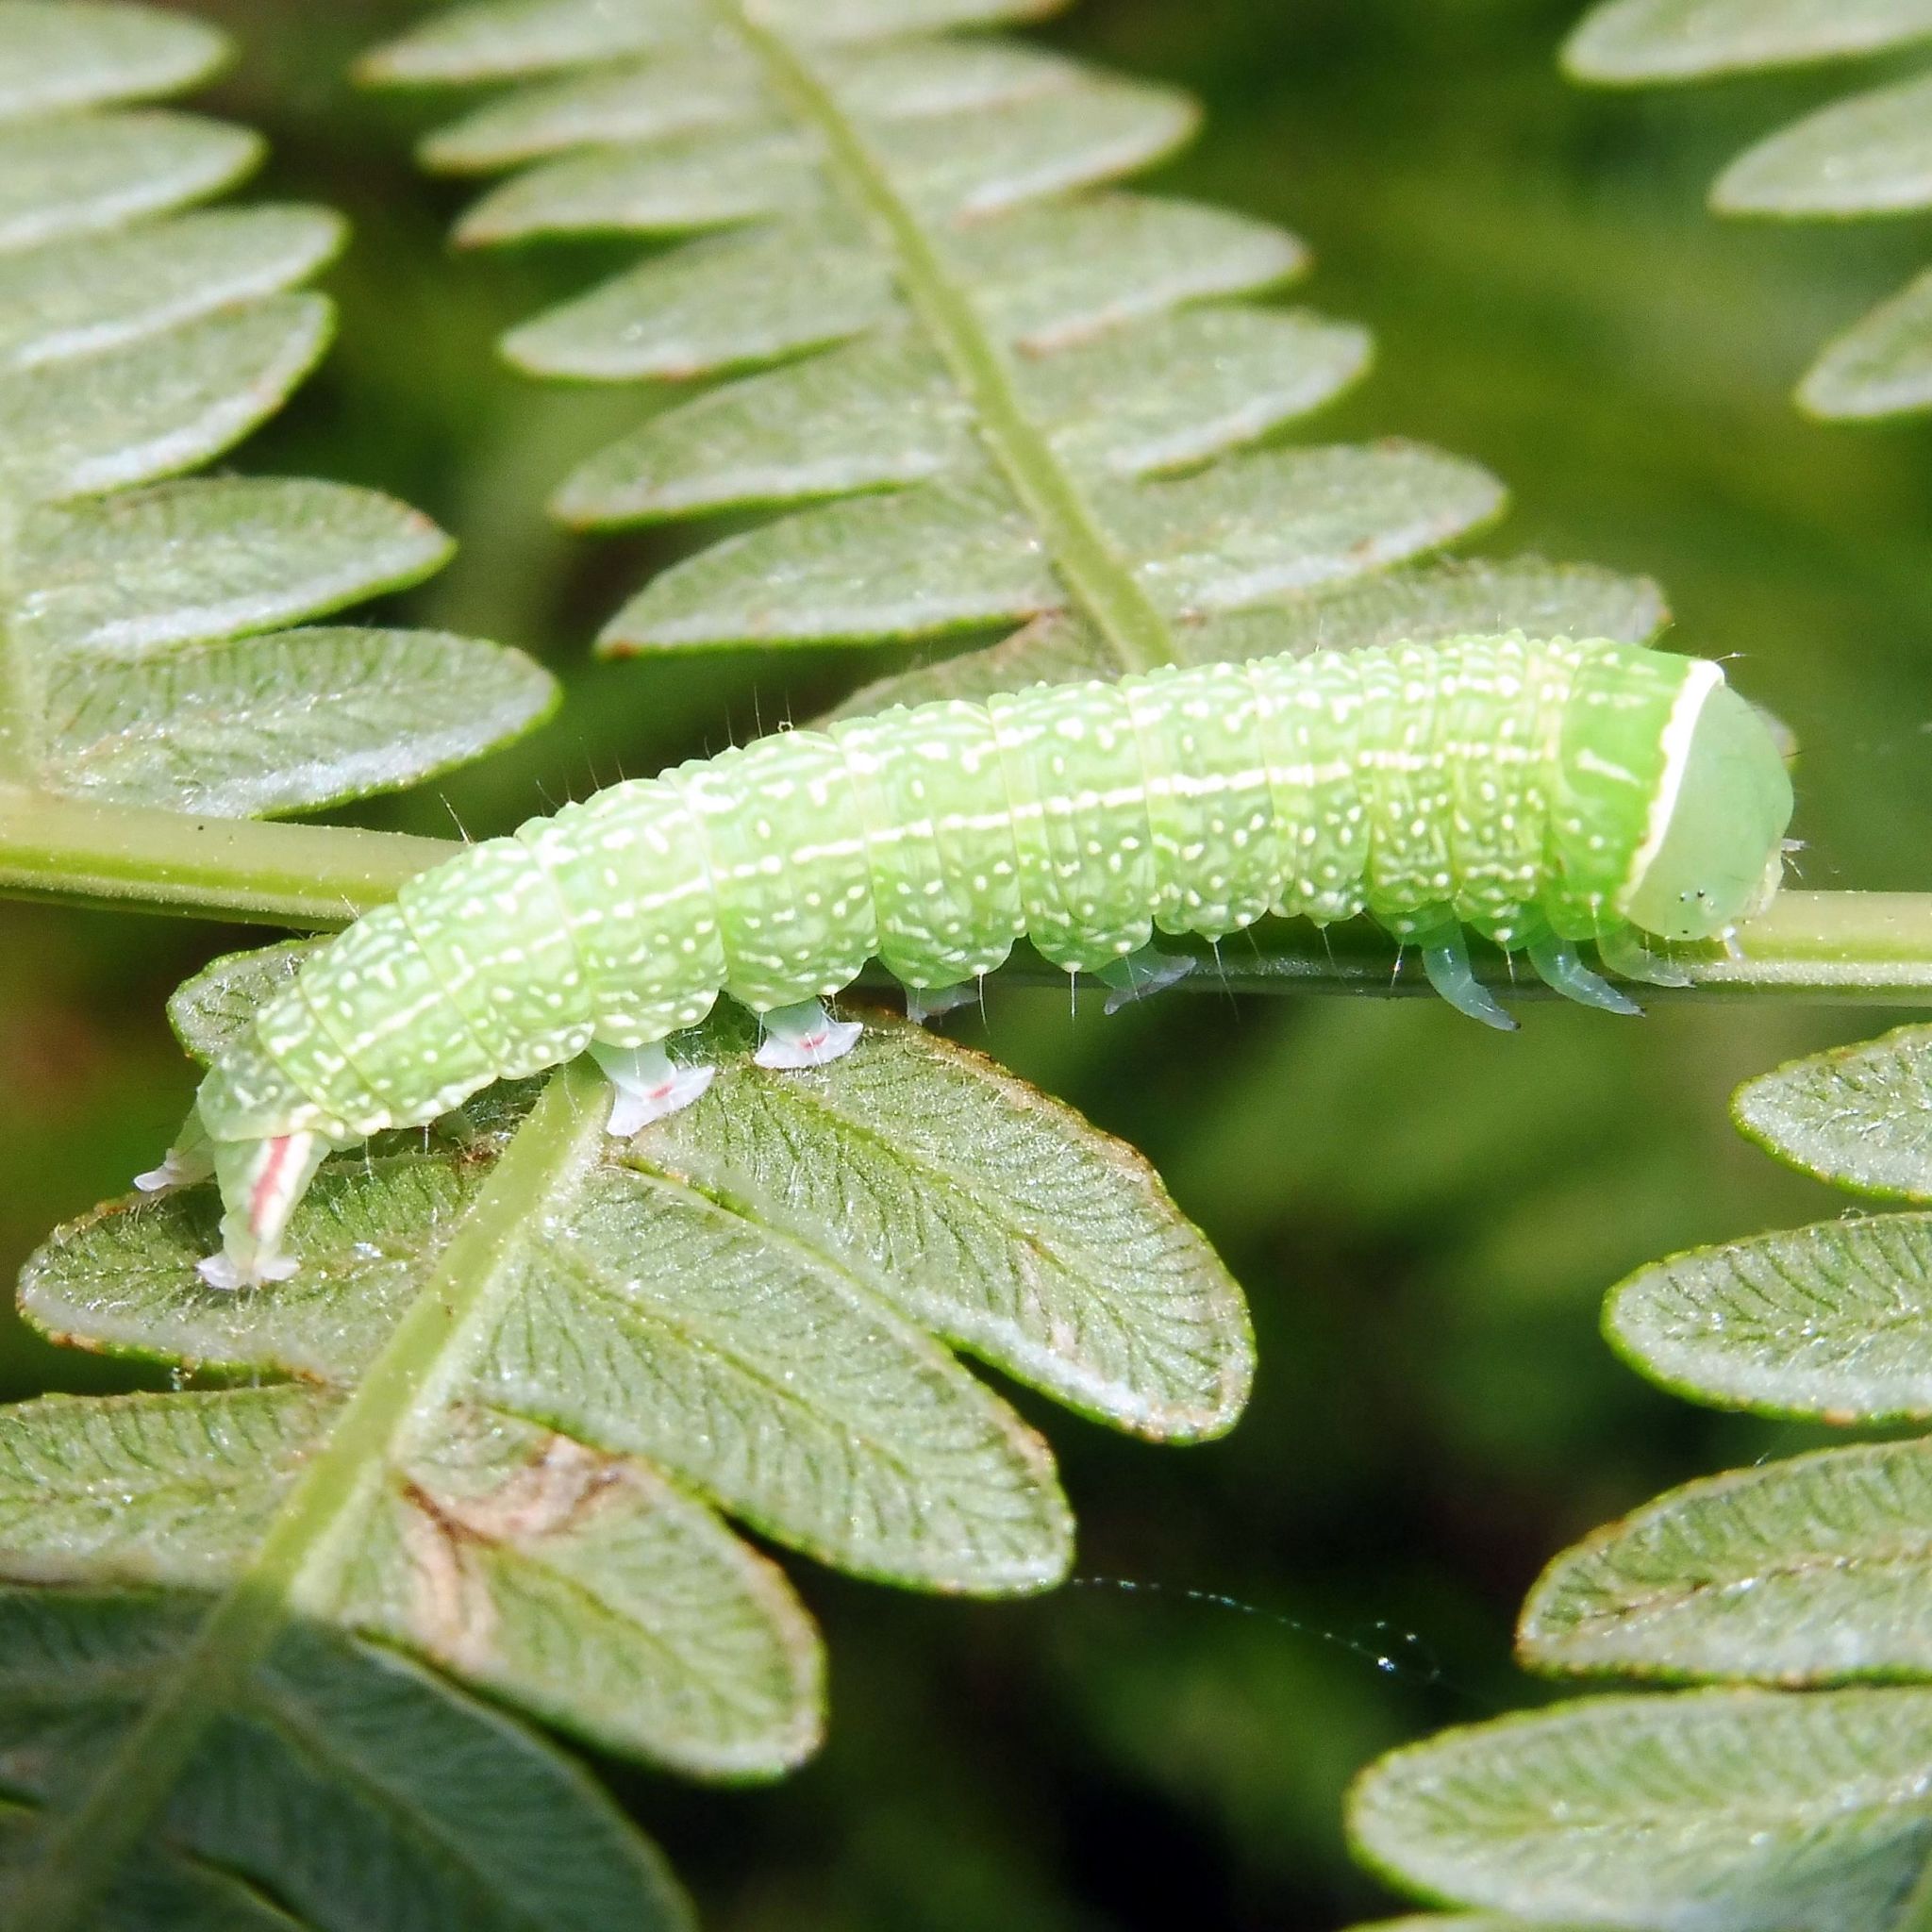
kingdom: Animalia
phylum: Arthropoda
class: Insecta
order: Lepidoptera
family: Nolidae
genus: Pseudoips
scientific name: Pseudoips prasinana
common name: Green silver-lines
